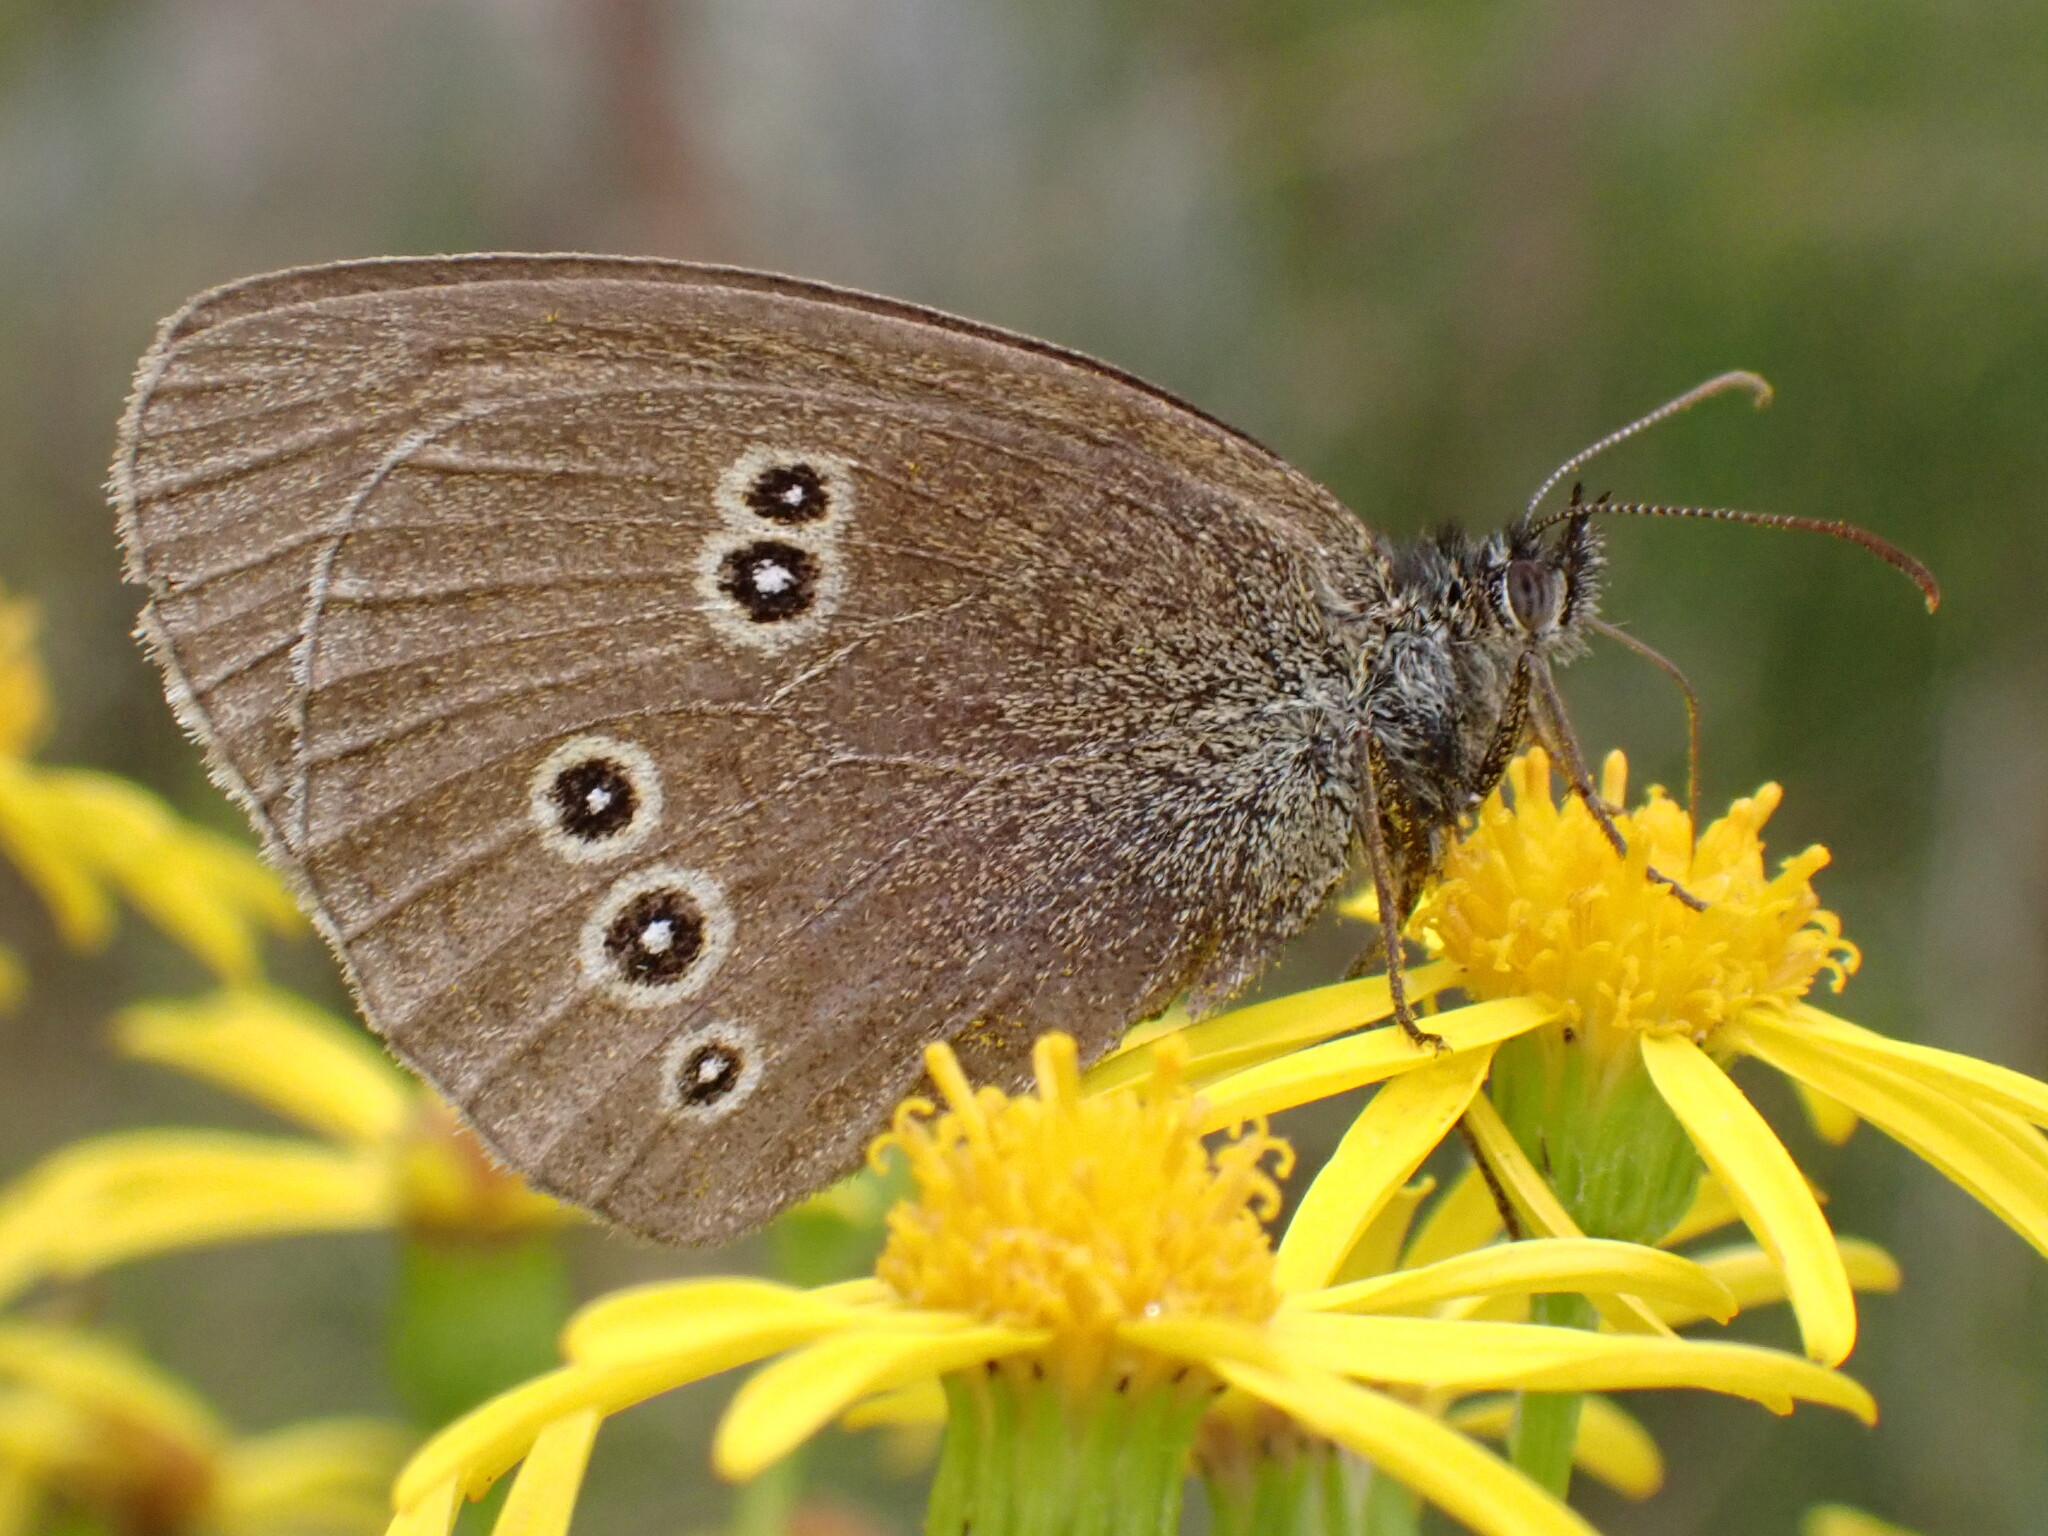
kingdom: Animalia
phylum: Arthropoda
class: Insecta
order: Lepidoptera
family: Nymphalidae
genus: Aphantopus
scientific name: Aphantopus hyperantus
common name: Ringlet
